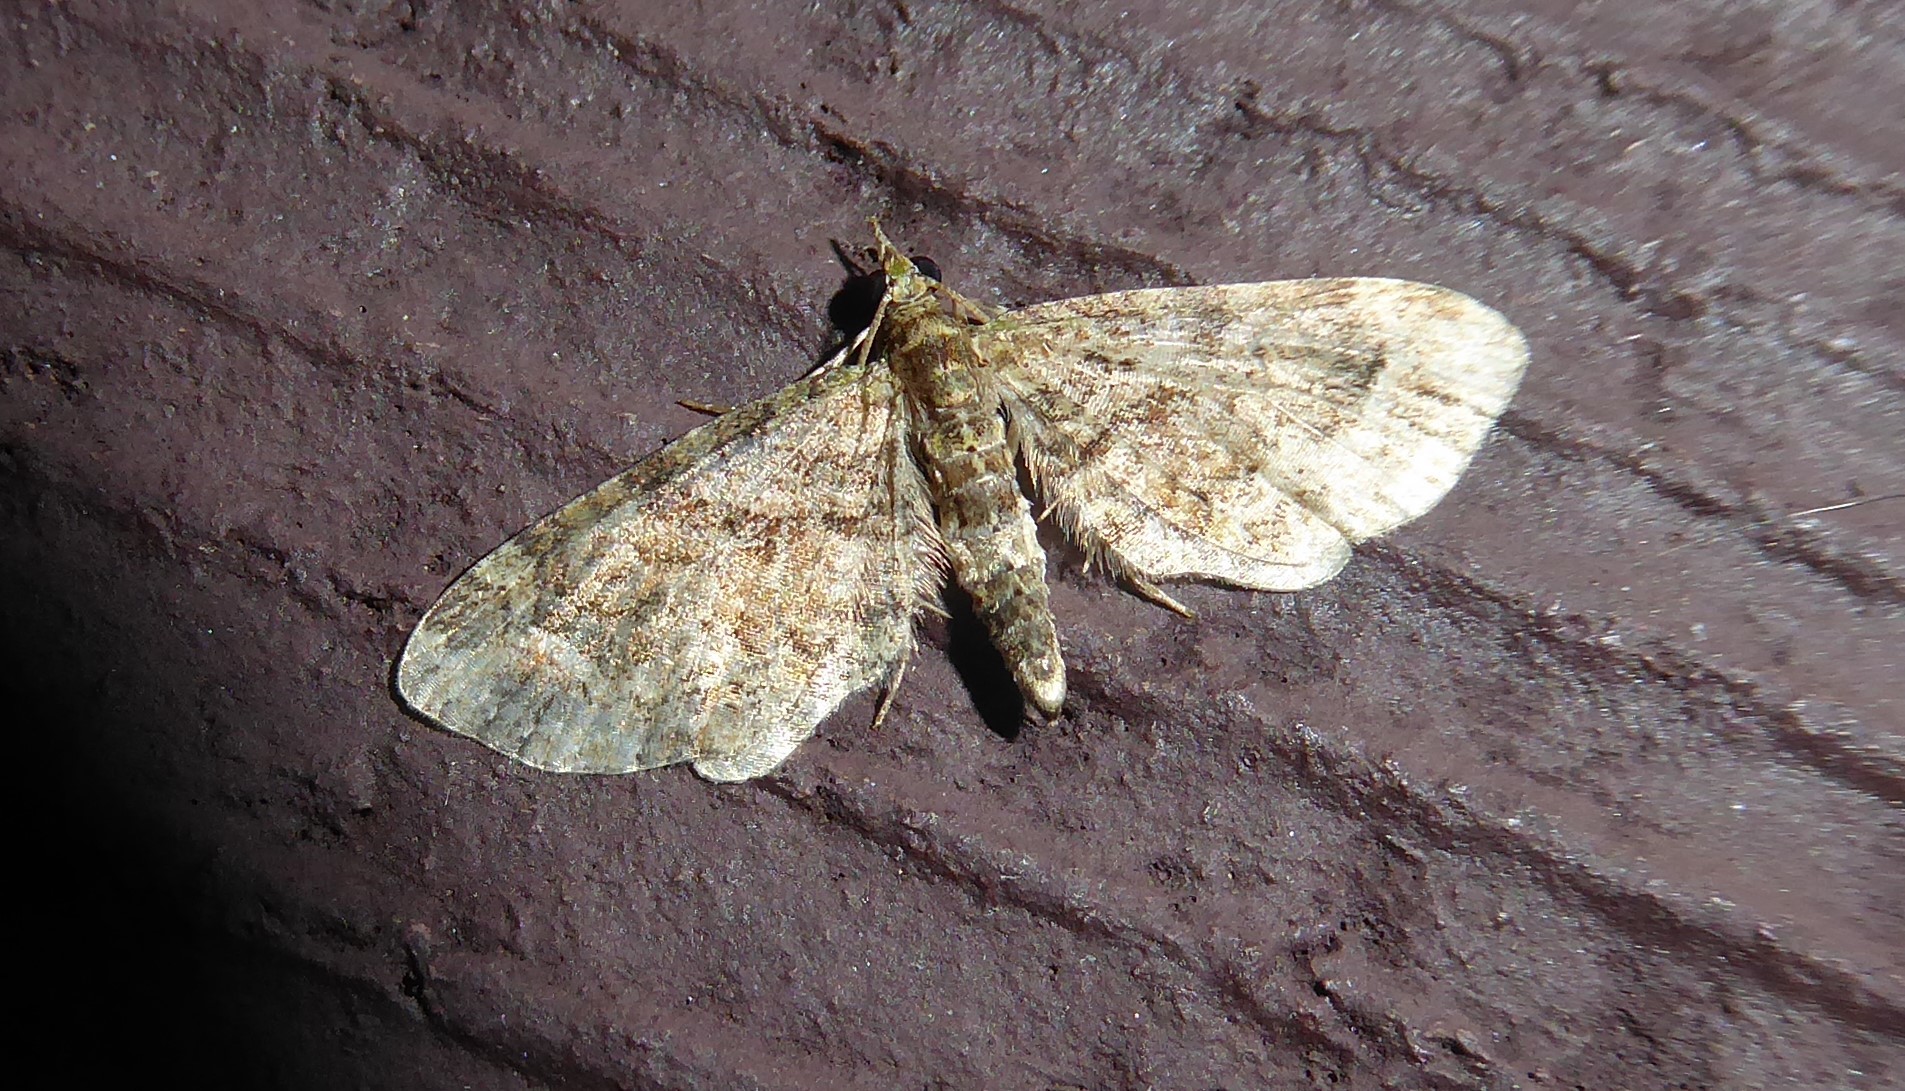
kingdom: Animalia
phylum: Arthropoda
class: Insecta
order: Lepidoptera
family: Geometridae
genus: Idaea
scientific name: Idaea mutanda
